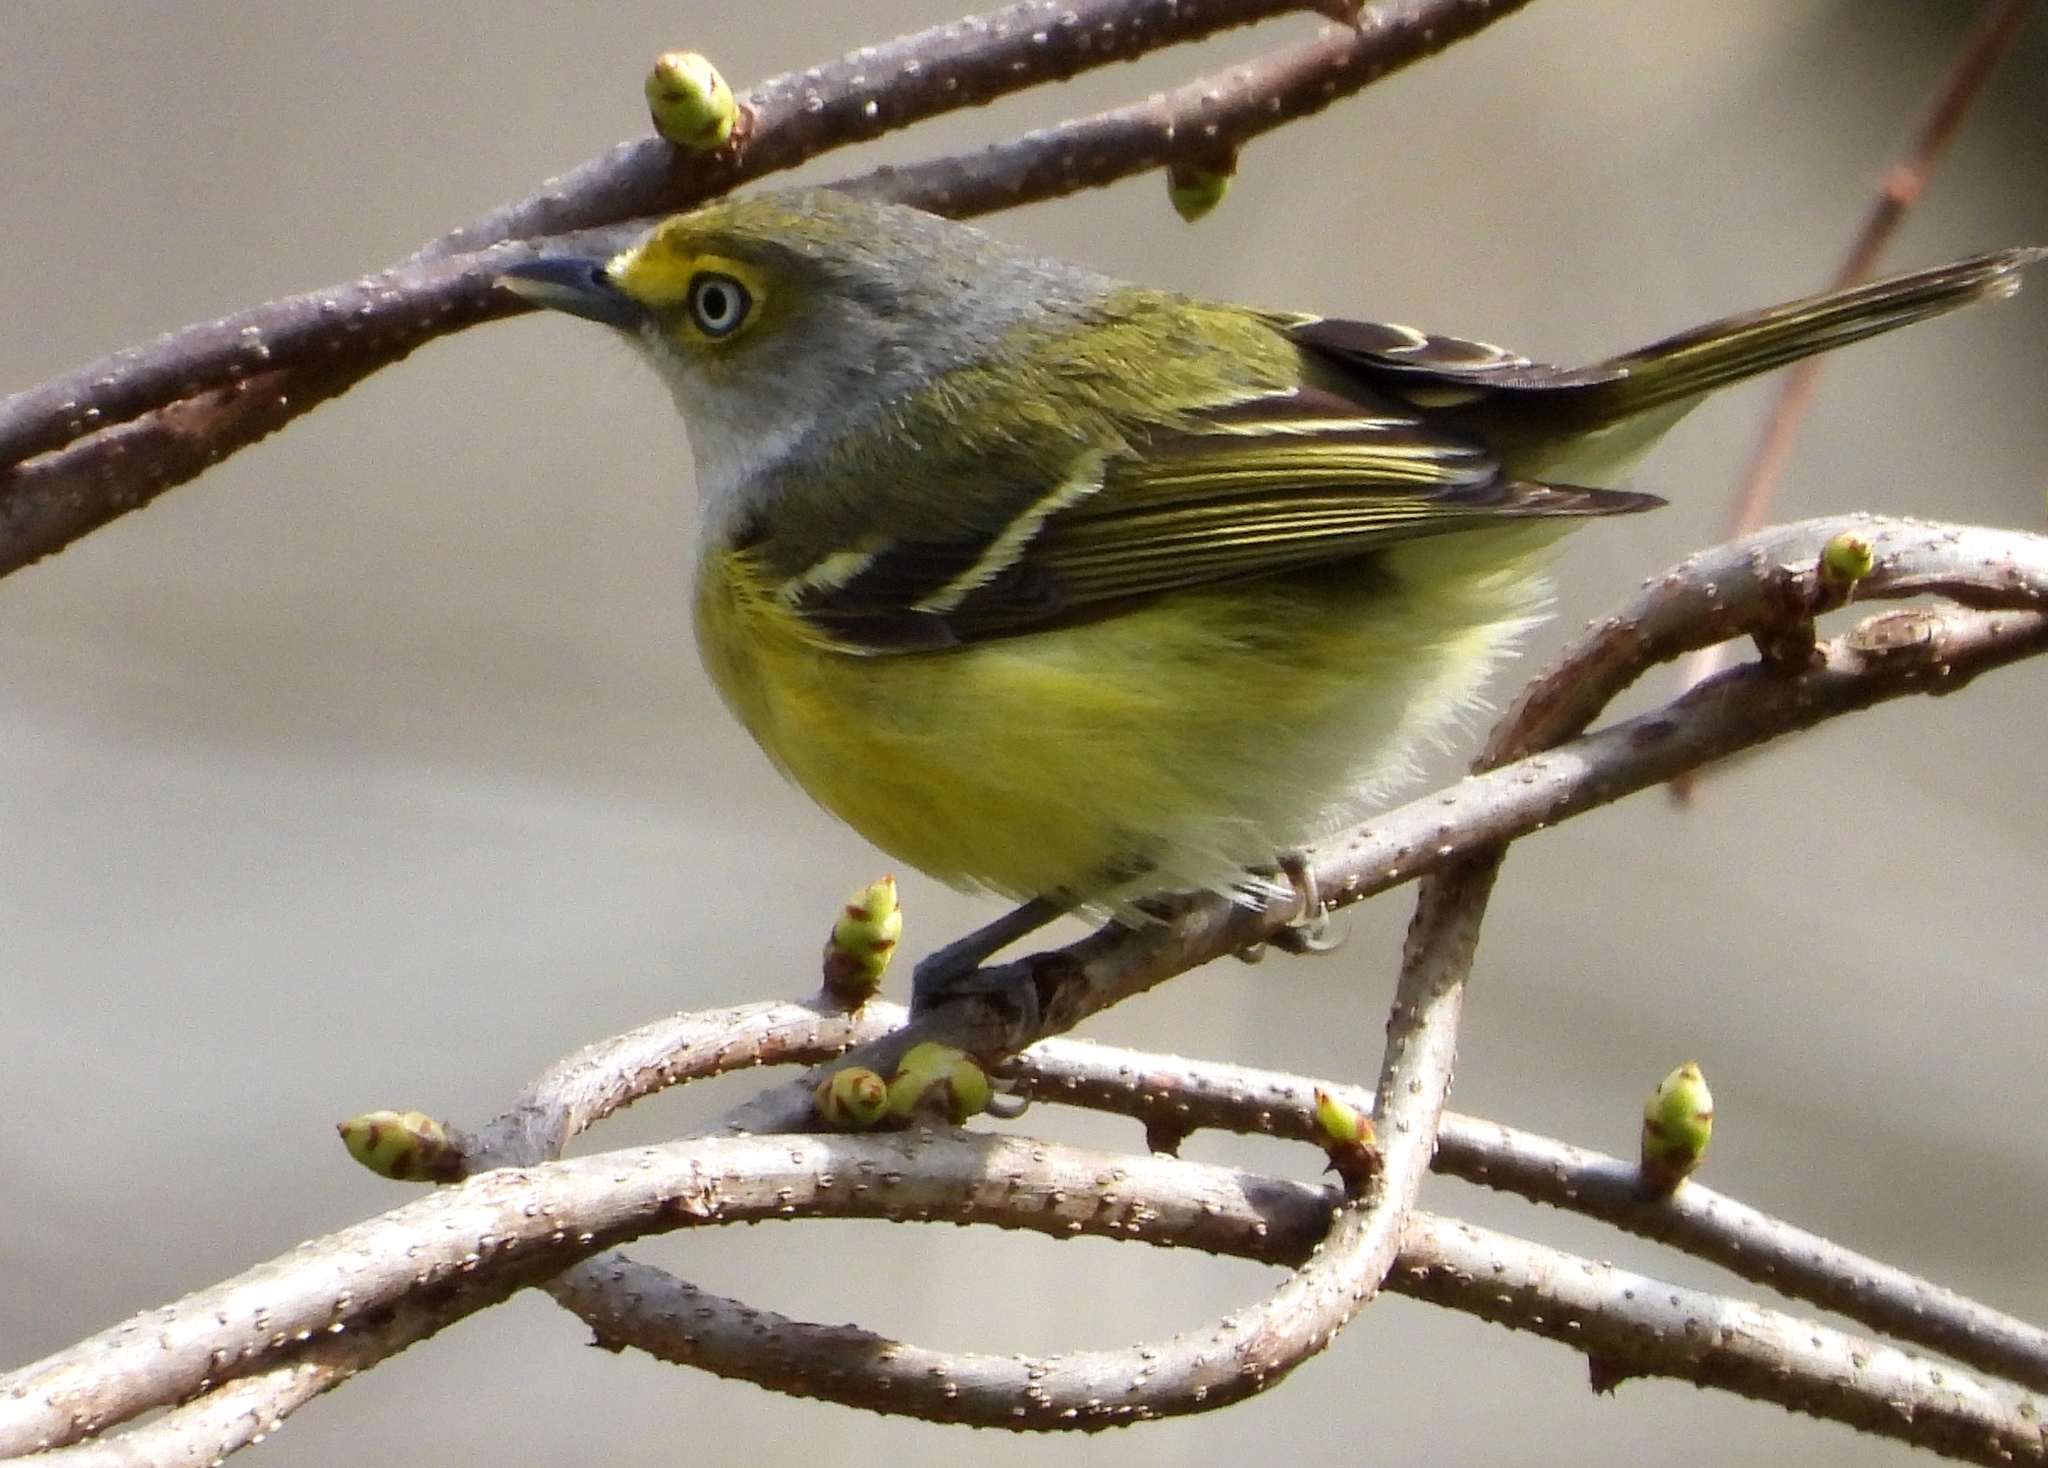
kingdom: Animalia
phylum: Chordata
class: Aves
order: Passeriformes
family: Vireonidae
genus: Vireo
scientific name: Vireo griseus
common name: White-eyed vireo
